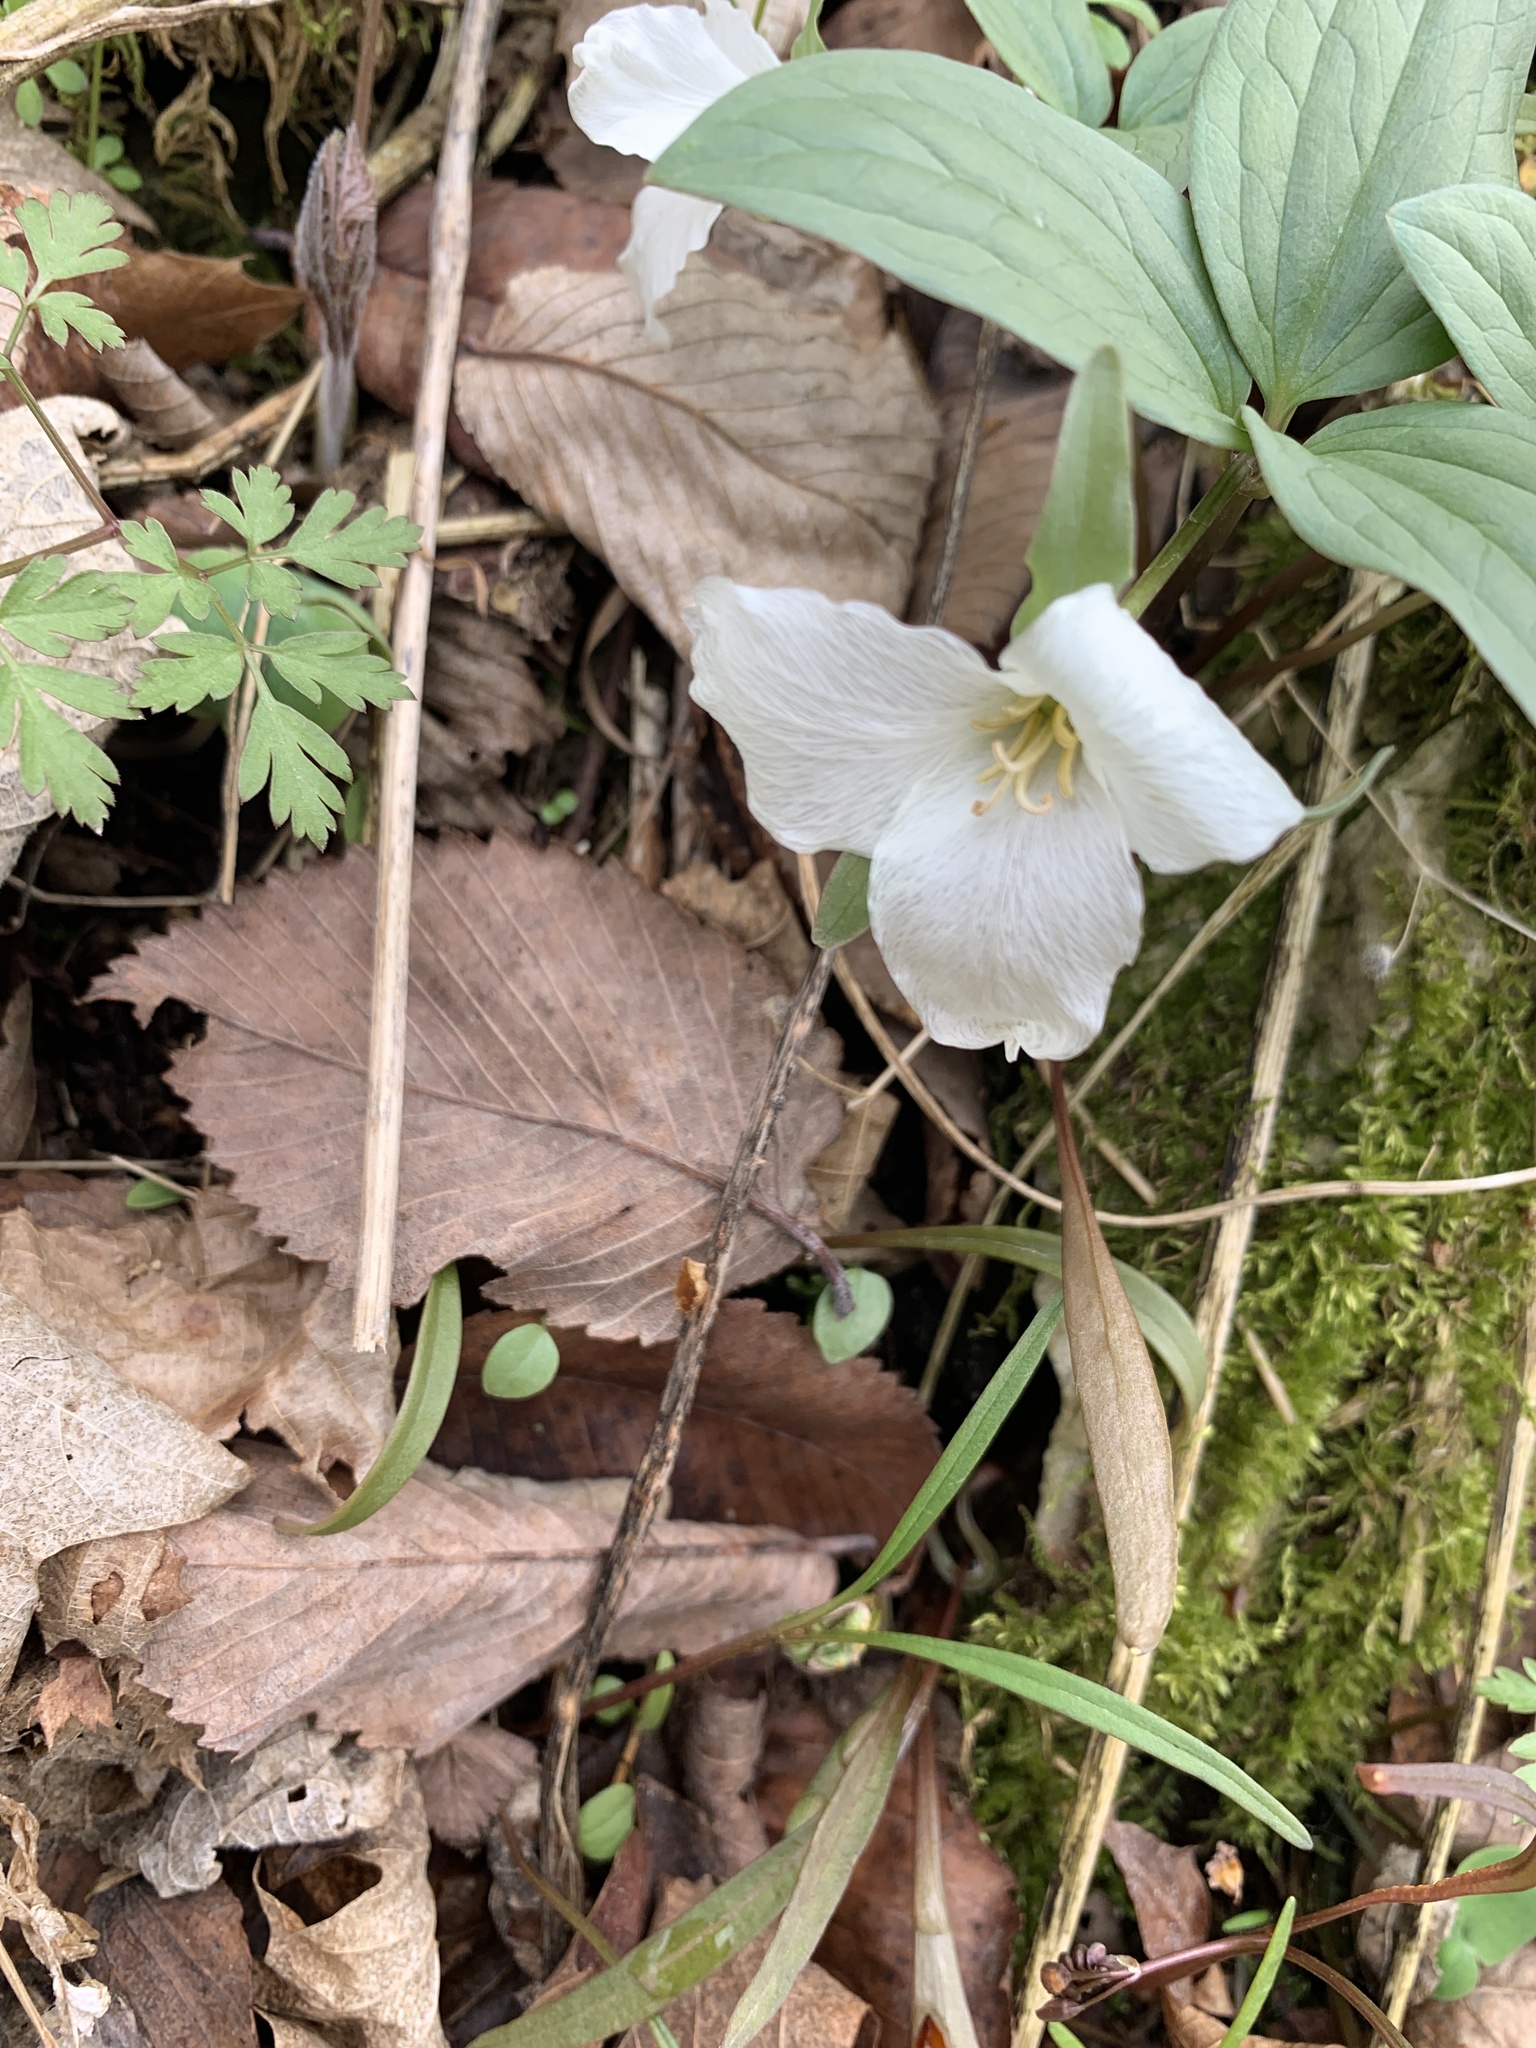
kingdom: Plantae
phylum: Tracheophyta
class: Liliopsida
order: Liliales
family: Melanthiaceae
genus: Trillium
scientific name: Trillium nivale
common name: Dwarf white trillium
